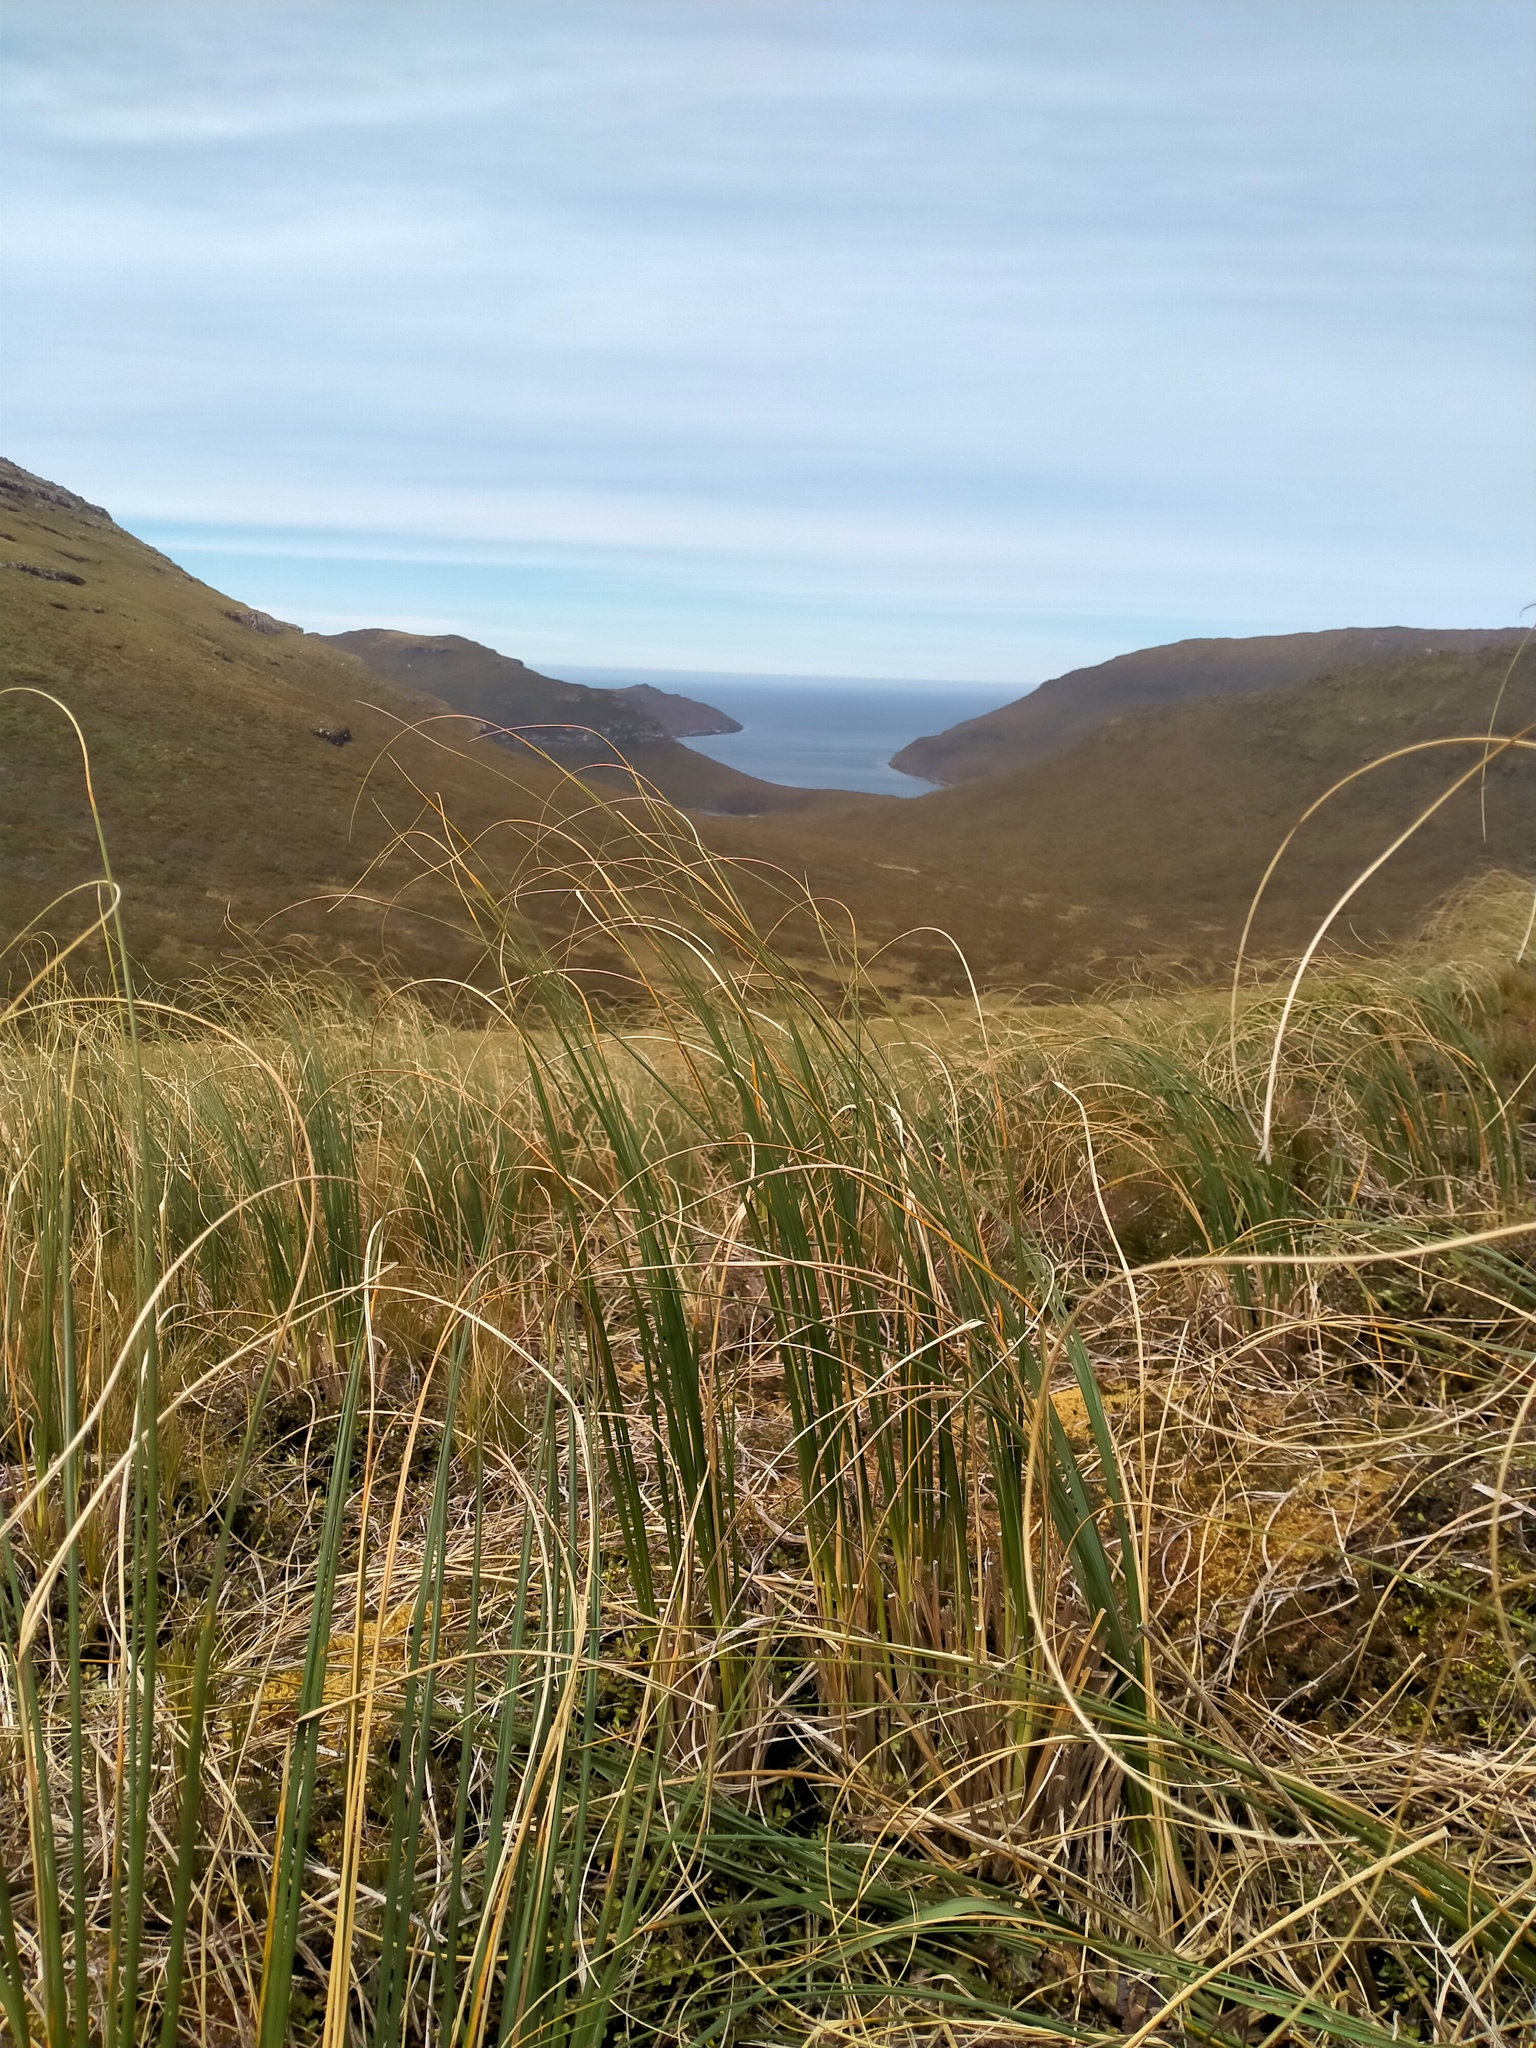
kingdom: Plantae
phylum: Tracheophyta
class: Liliopsida
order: Poales
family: Poaceae
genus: Chionochloa
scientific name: Chionochloa antarctica
